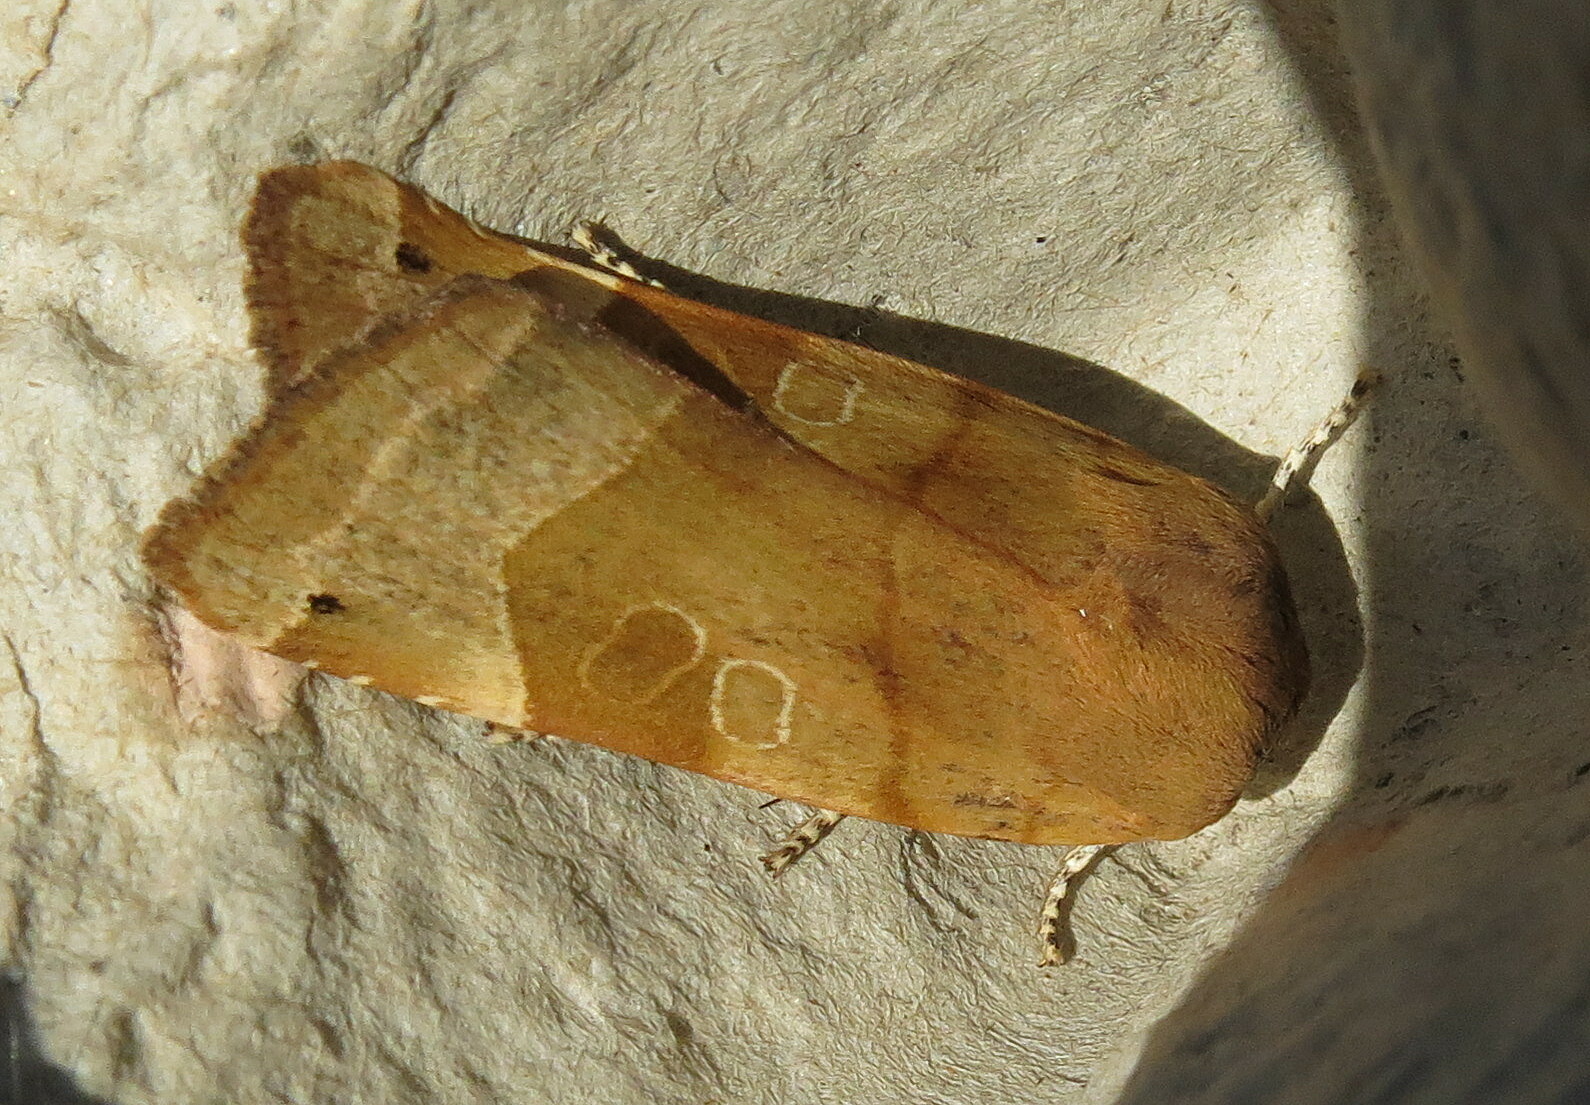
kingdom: Animalia
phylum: Arthropoda
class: Insecta
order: Lepidoptera
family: Noctuidae
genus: Noctua
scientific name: Noctua fimbriata
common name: Broad-bordered yellow underwing
